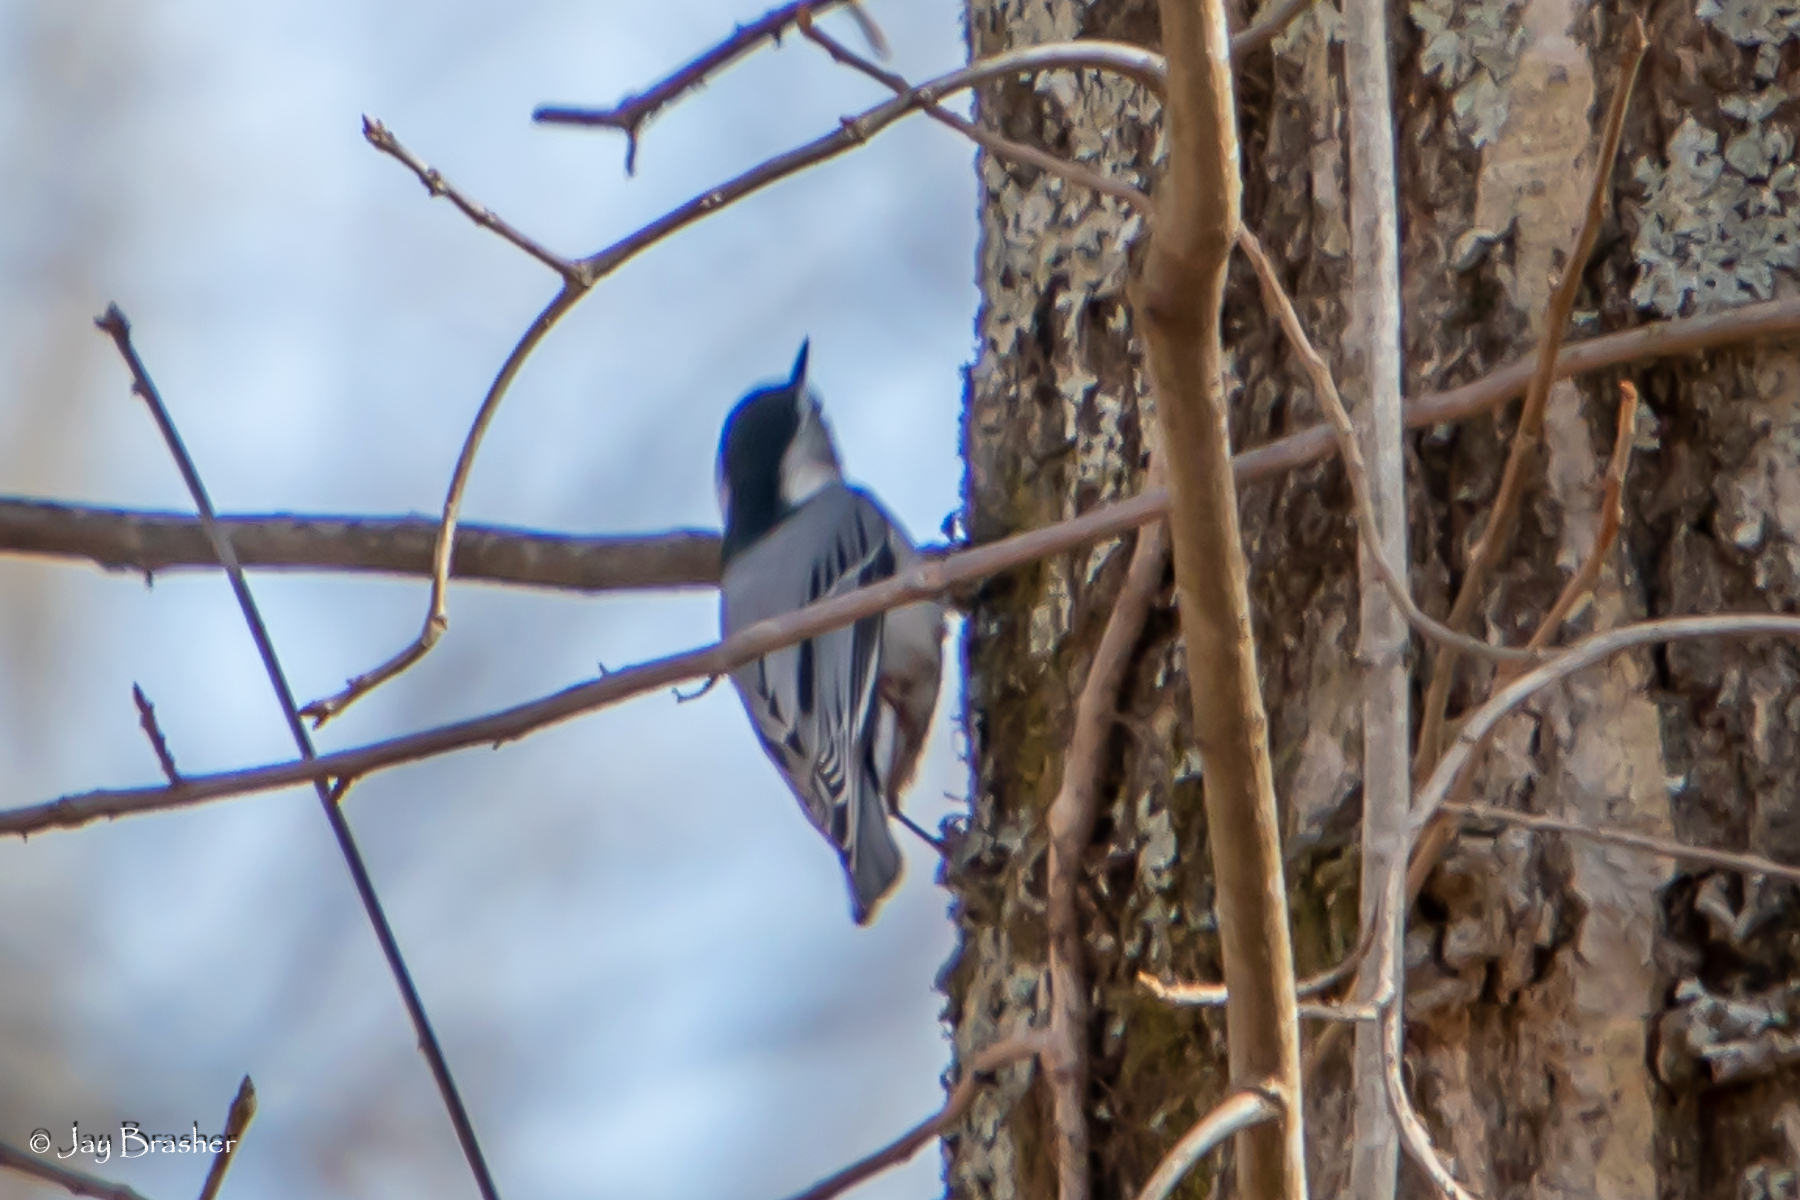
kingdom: Animalia
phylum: Chordata
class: Aves
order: Passeriformes
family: Sittidae
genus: Sitta
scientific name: Sitta carolinensis
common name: White-breasted nuthatch
